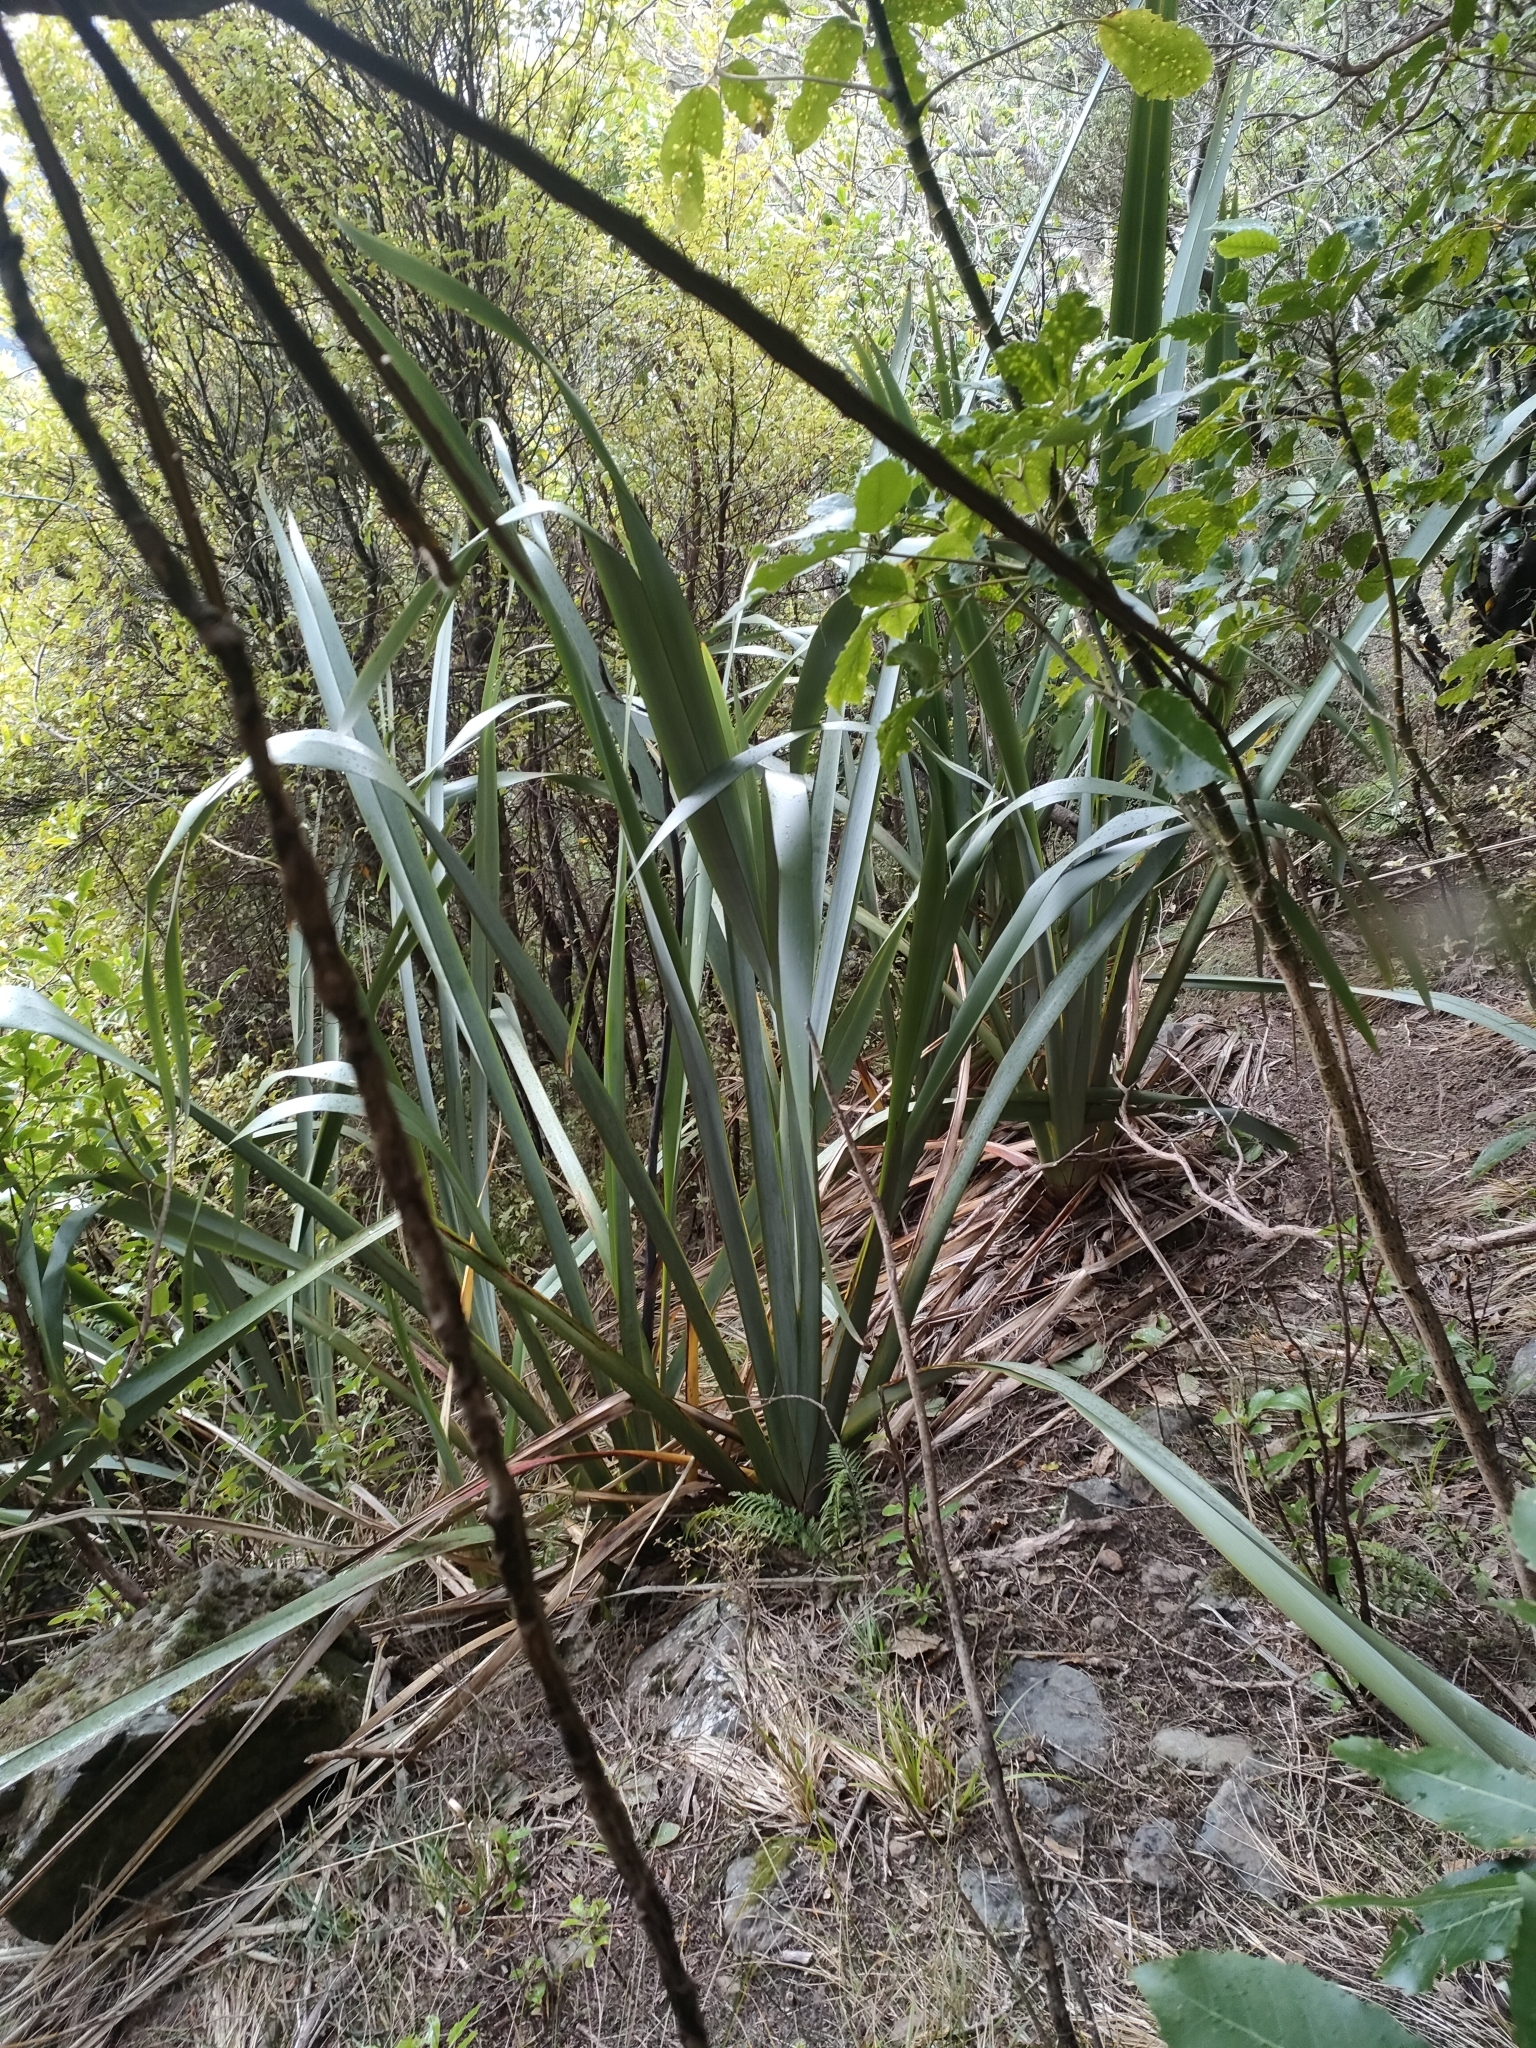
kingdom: Plantae
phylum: Tracheophyta
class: Liliopsida
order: Asparagales
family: Asphodelaceae
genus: Phormium
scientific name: Phormium tenax
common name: New zealand flax
